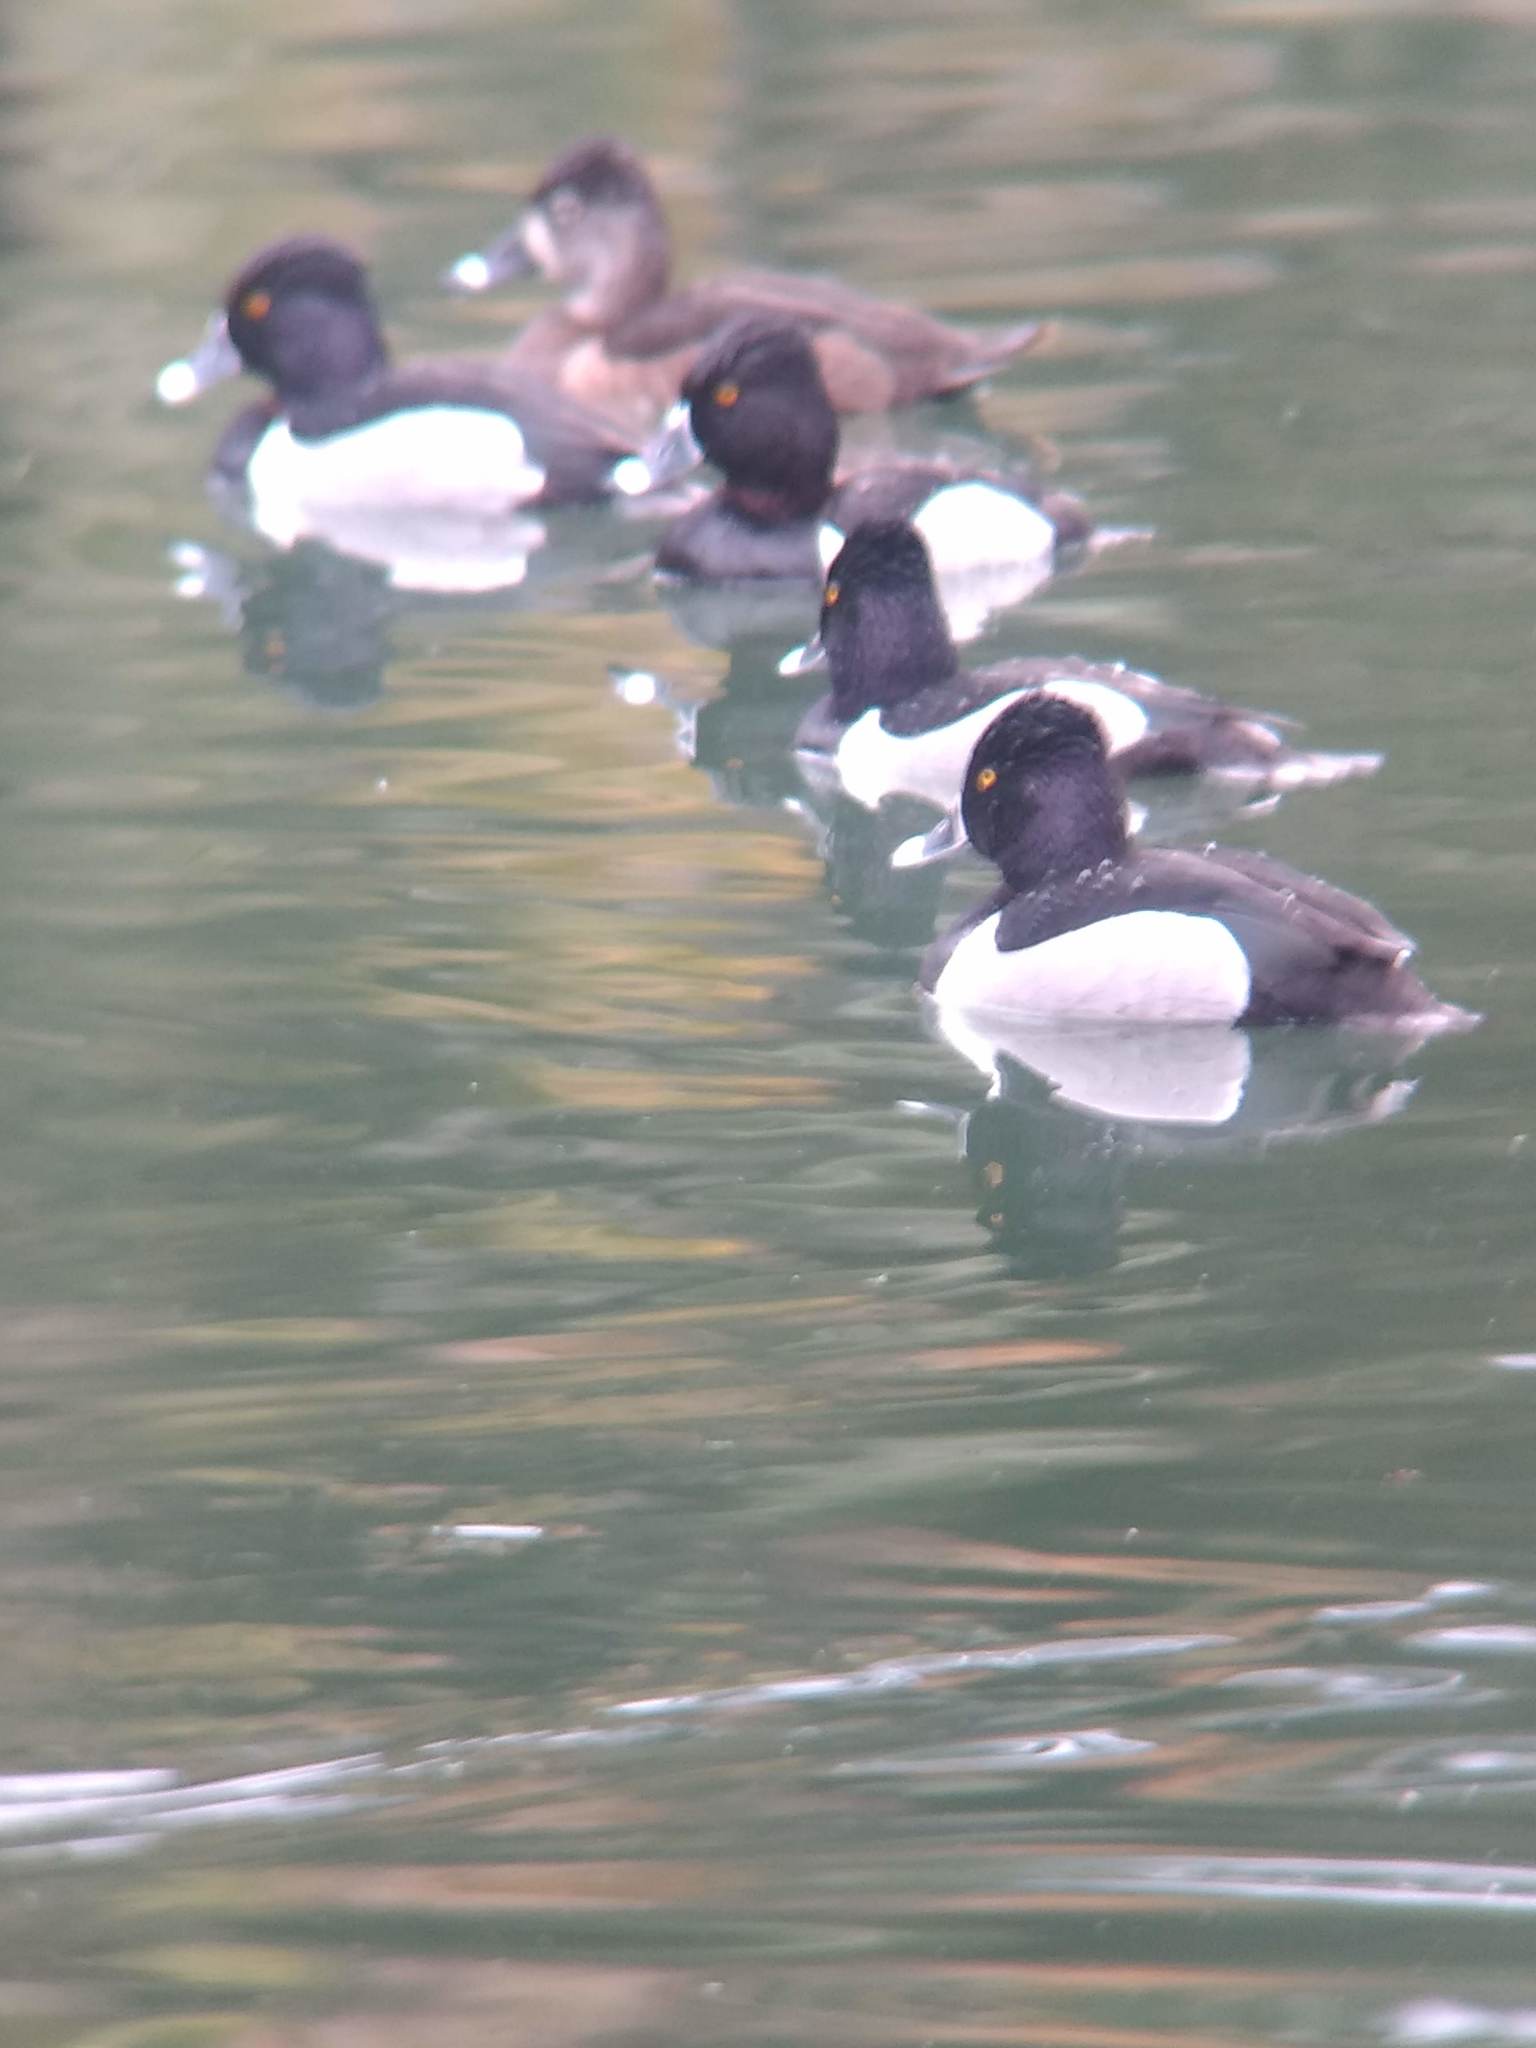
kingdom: Animalia
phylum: Chordata
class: Aves
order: Anseriformes
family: Anatidae
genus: Aythya
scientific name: Aythya collaris
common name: Ring-necked duck
